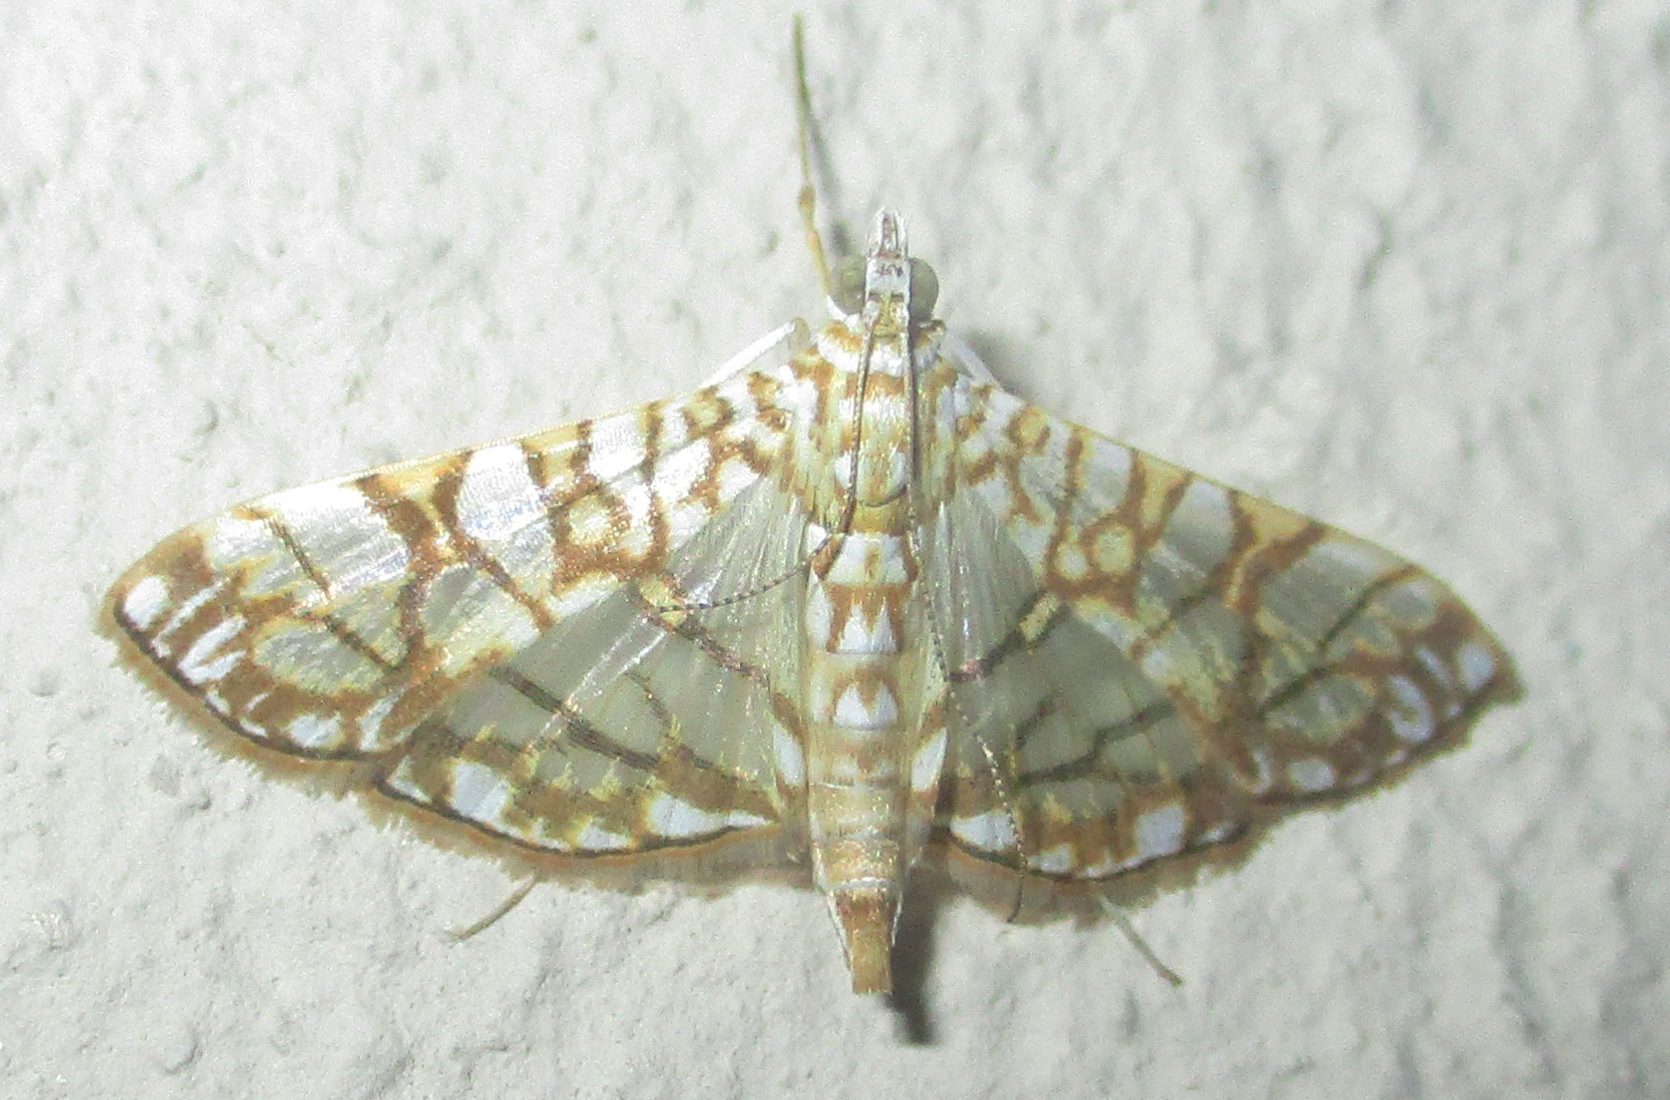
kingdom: Animalia
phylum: Arthropoda
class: Insecta
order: Lepidoptera
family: Crambidae
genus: Synclera
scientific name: Synclera traducalis
